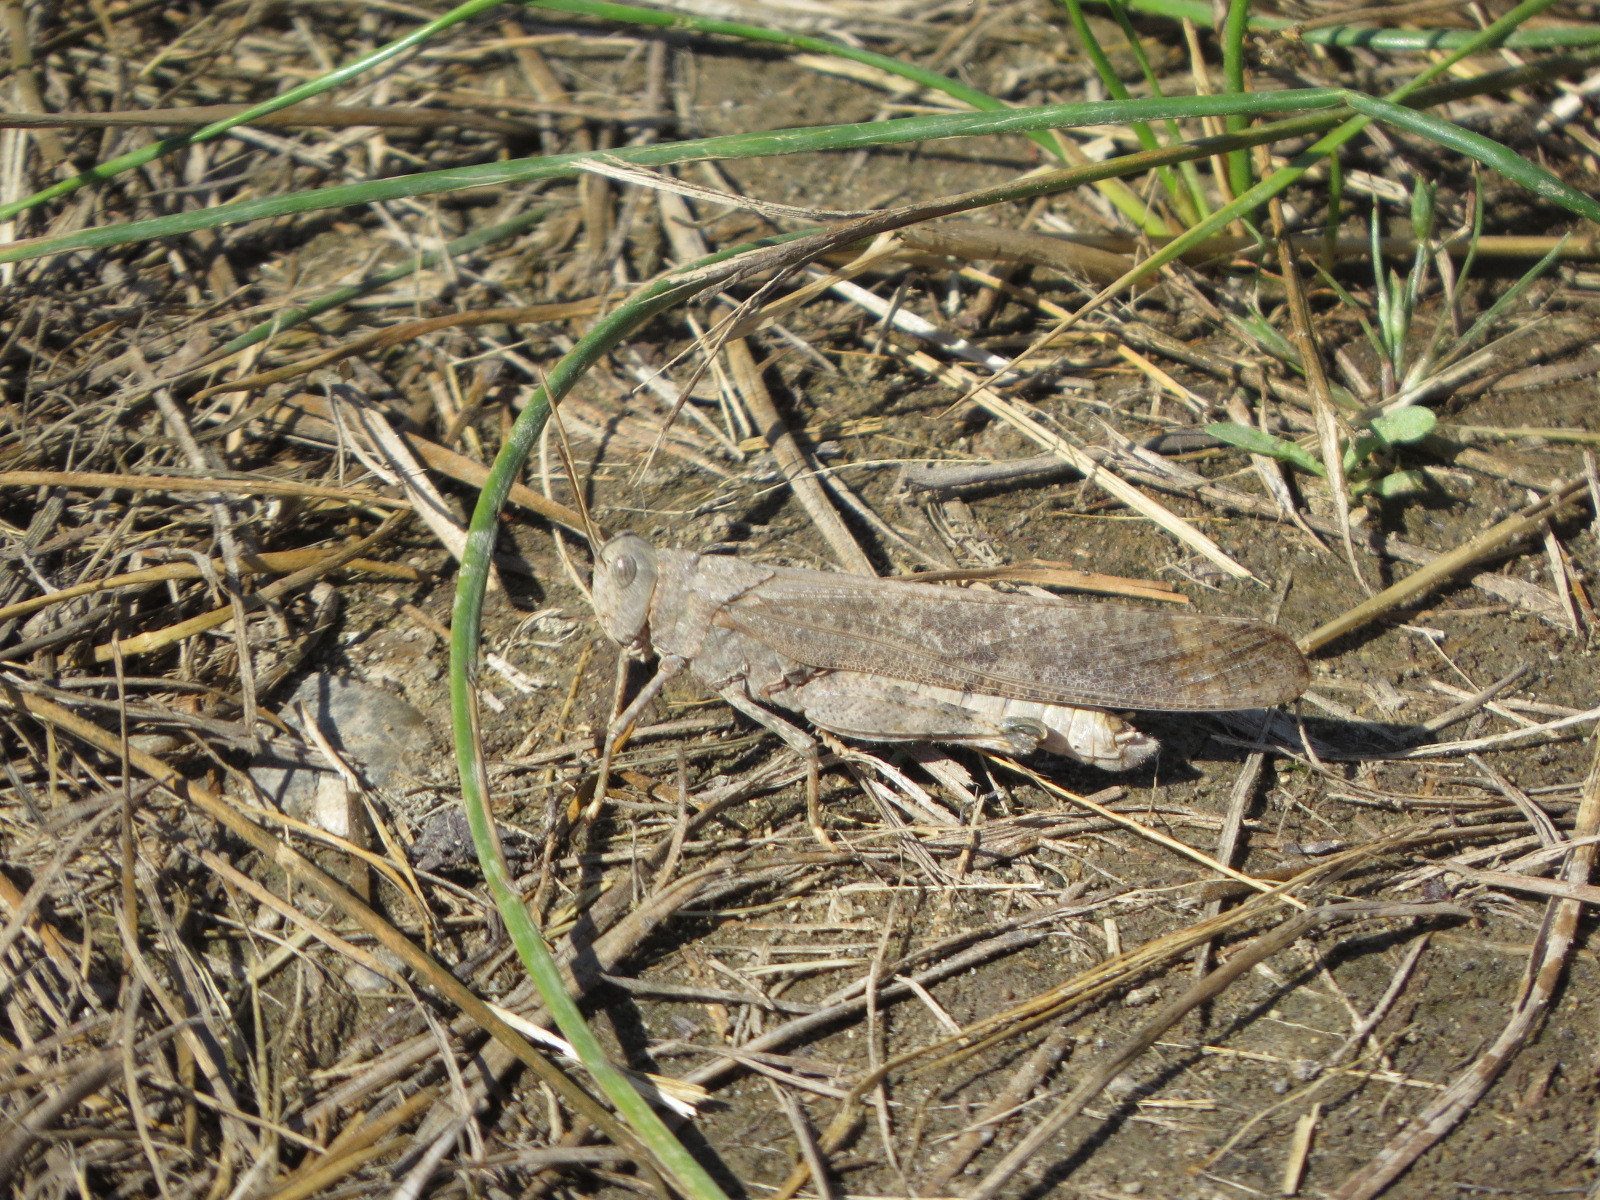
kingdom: Animalia
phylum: Arthropoda
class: Insecta
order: Orthoptera
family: Acrididae
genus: Dissosteira
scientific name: Dissosteira carolina
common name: Carolina grasshopper
